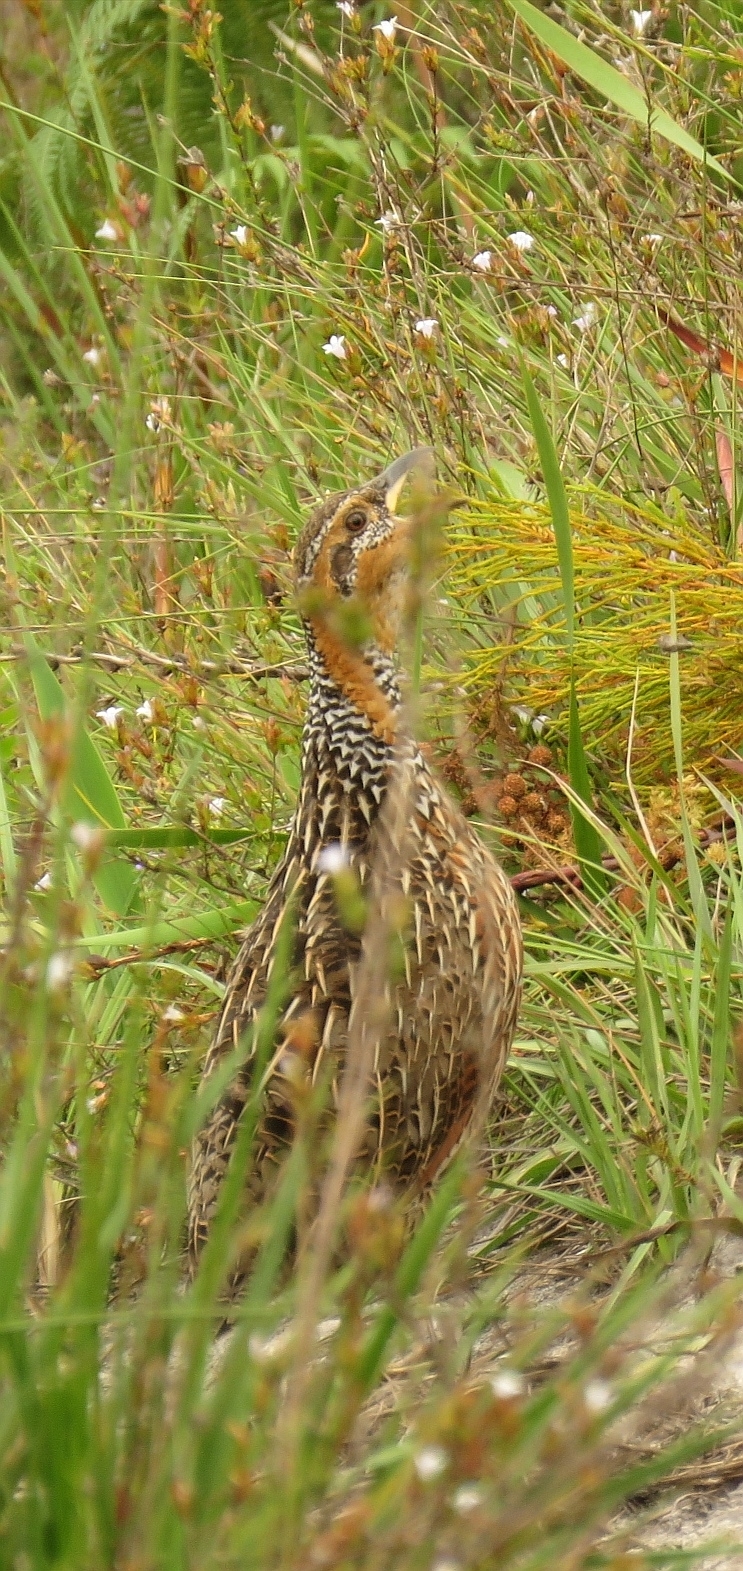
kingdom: Animalia
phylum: Chordata
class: Aves
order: Galliformes
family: Phasianidae
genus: Scleroptila
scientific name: Scleroptila levaillantii
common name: Red-winged francolin
